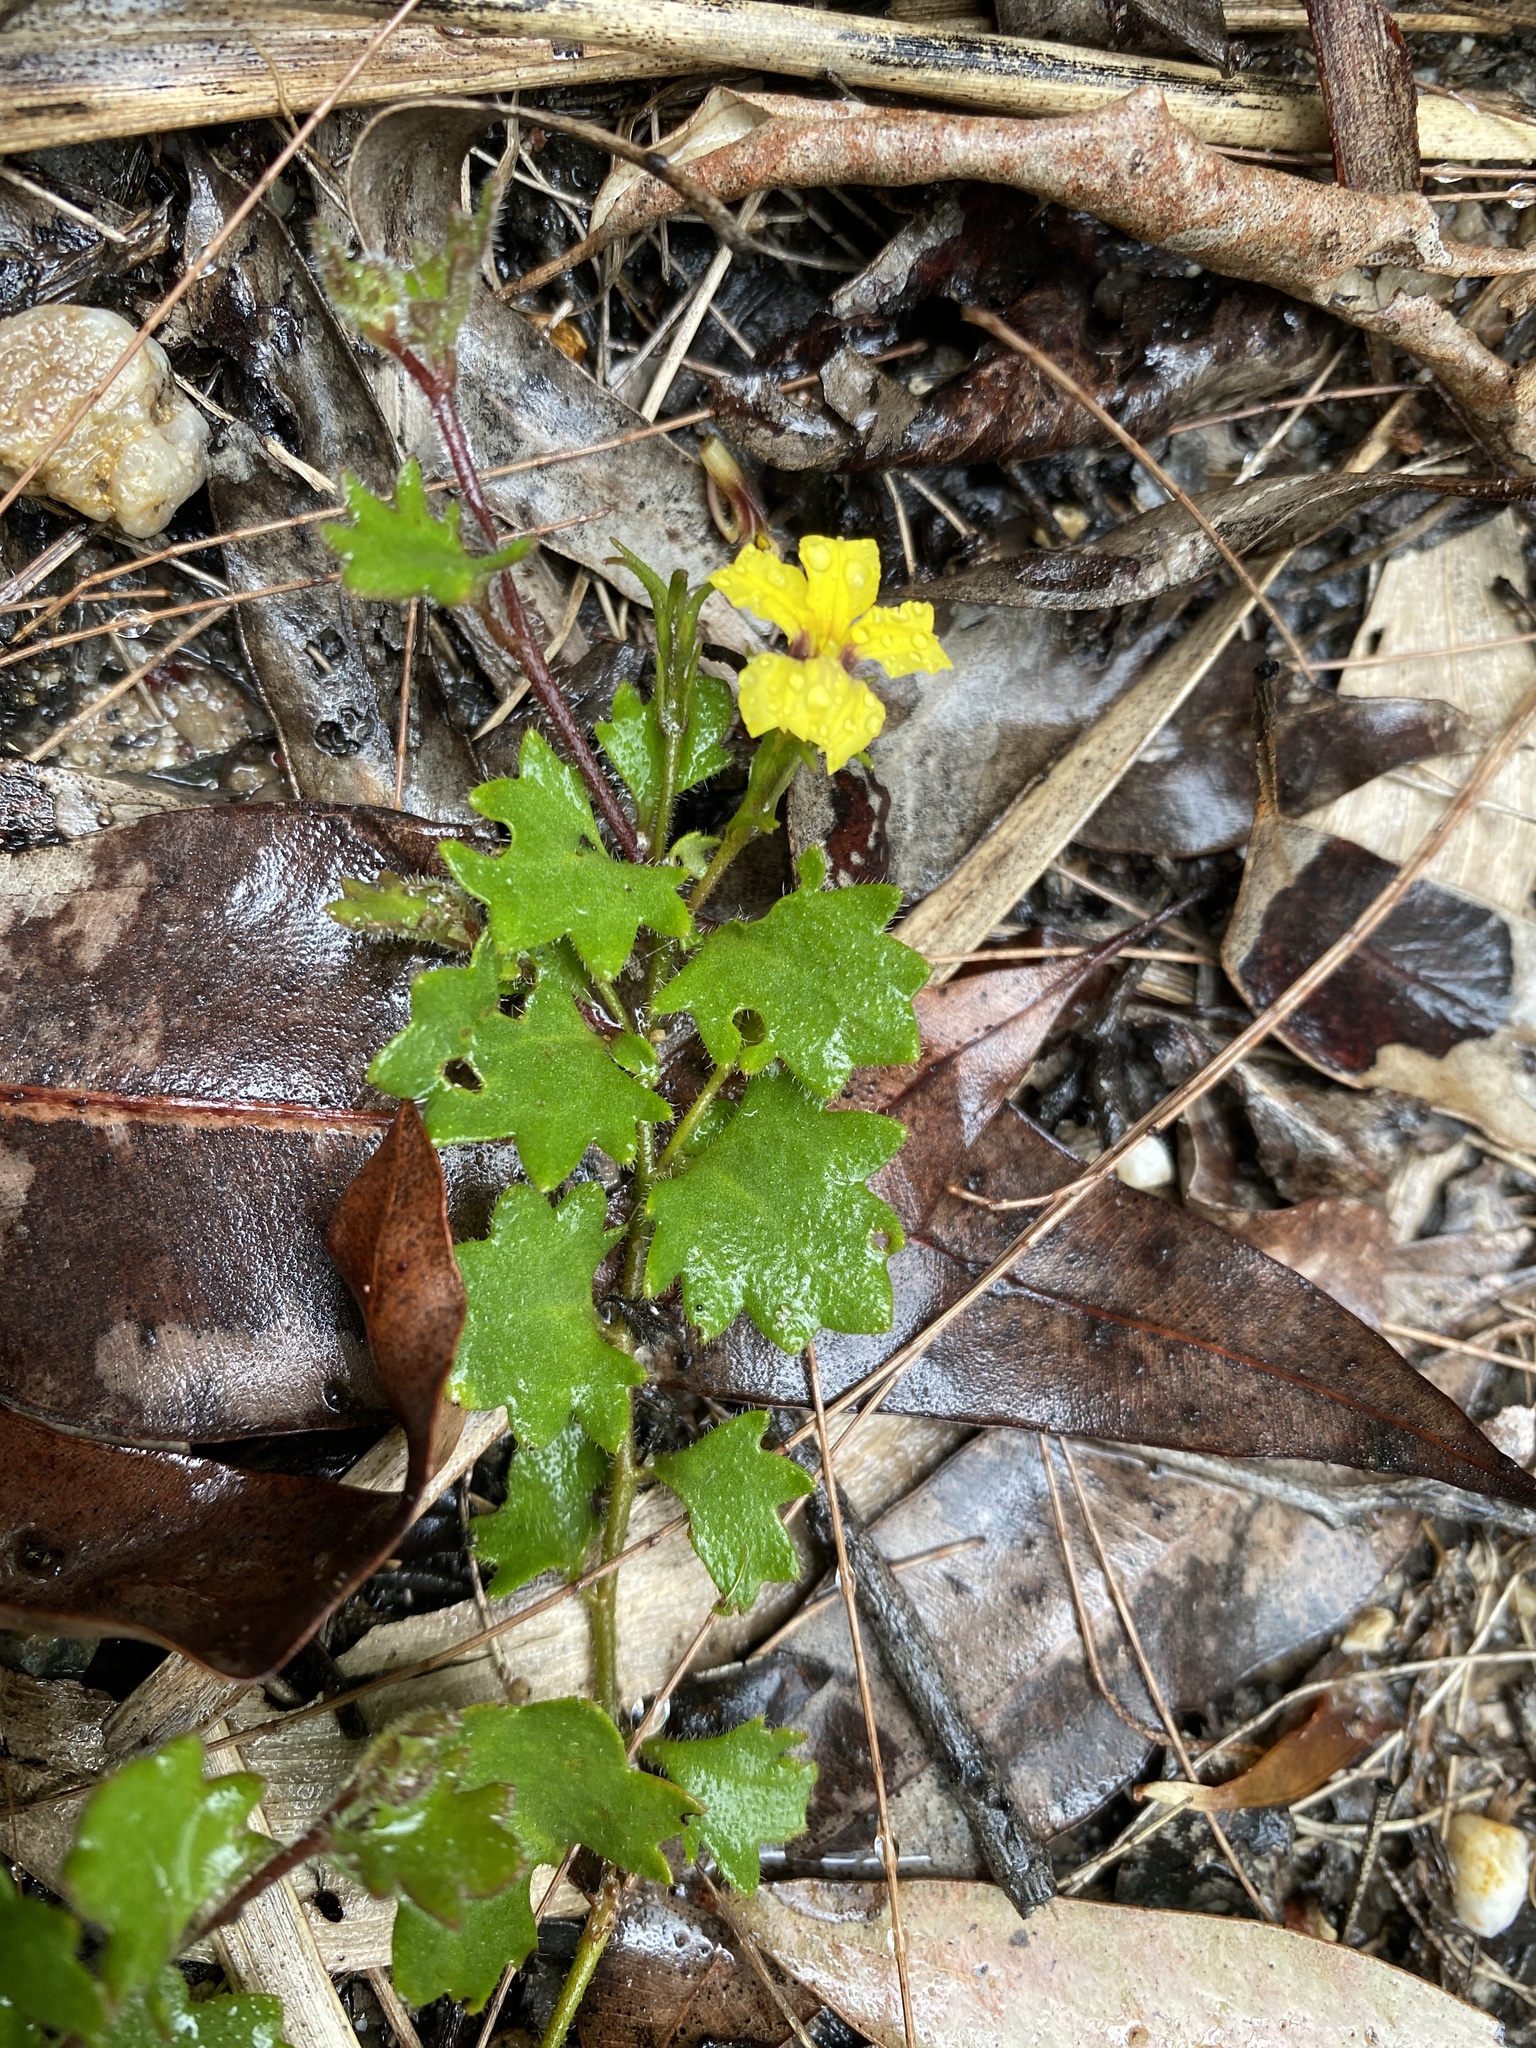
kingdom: Plantae
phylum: Tracheophyta
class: Magnoliopsida
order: Asterales
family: Goodeniaceae
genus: Goodenia
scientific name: Goodenia rotundifolia
